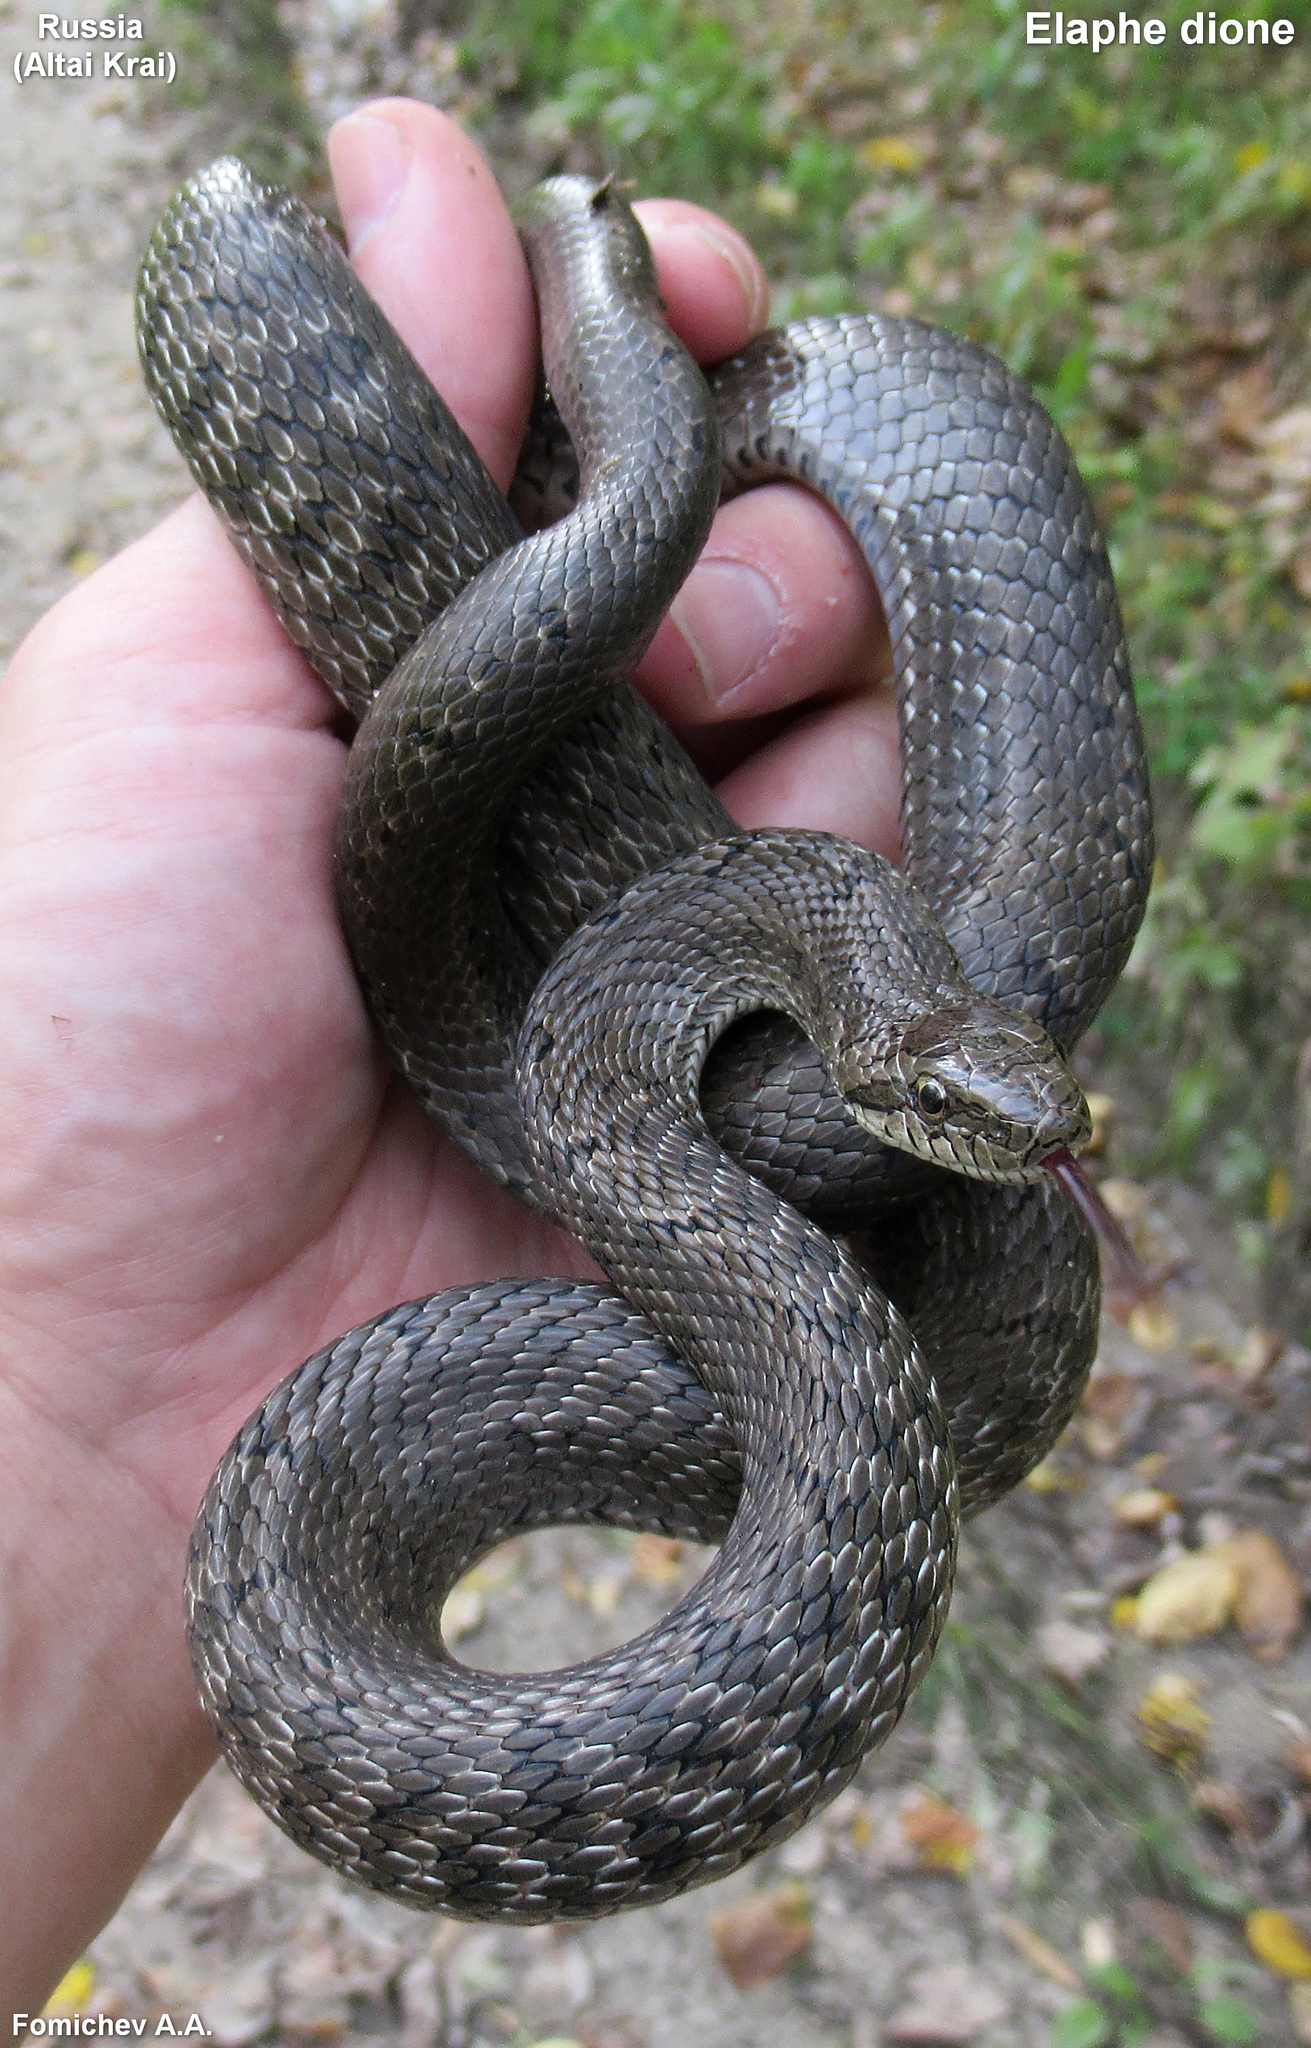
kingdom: Animalia
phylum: Chordata
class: Squamata
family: Colubridae
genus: Elaphe
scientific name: Elaphe dione
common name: Dione ratsnake
